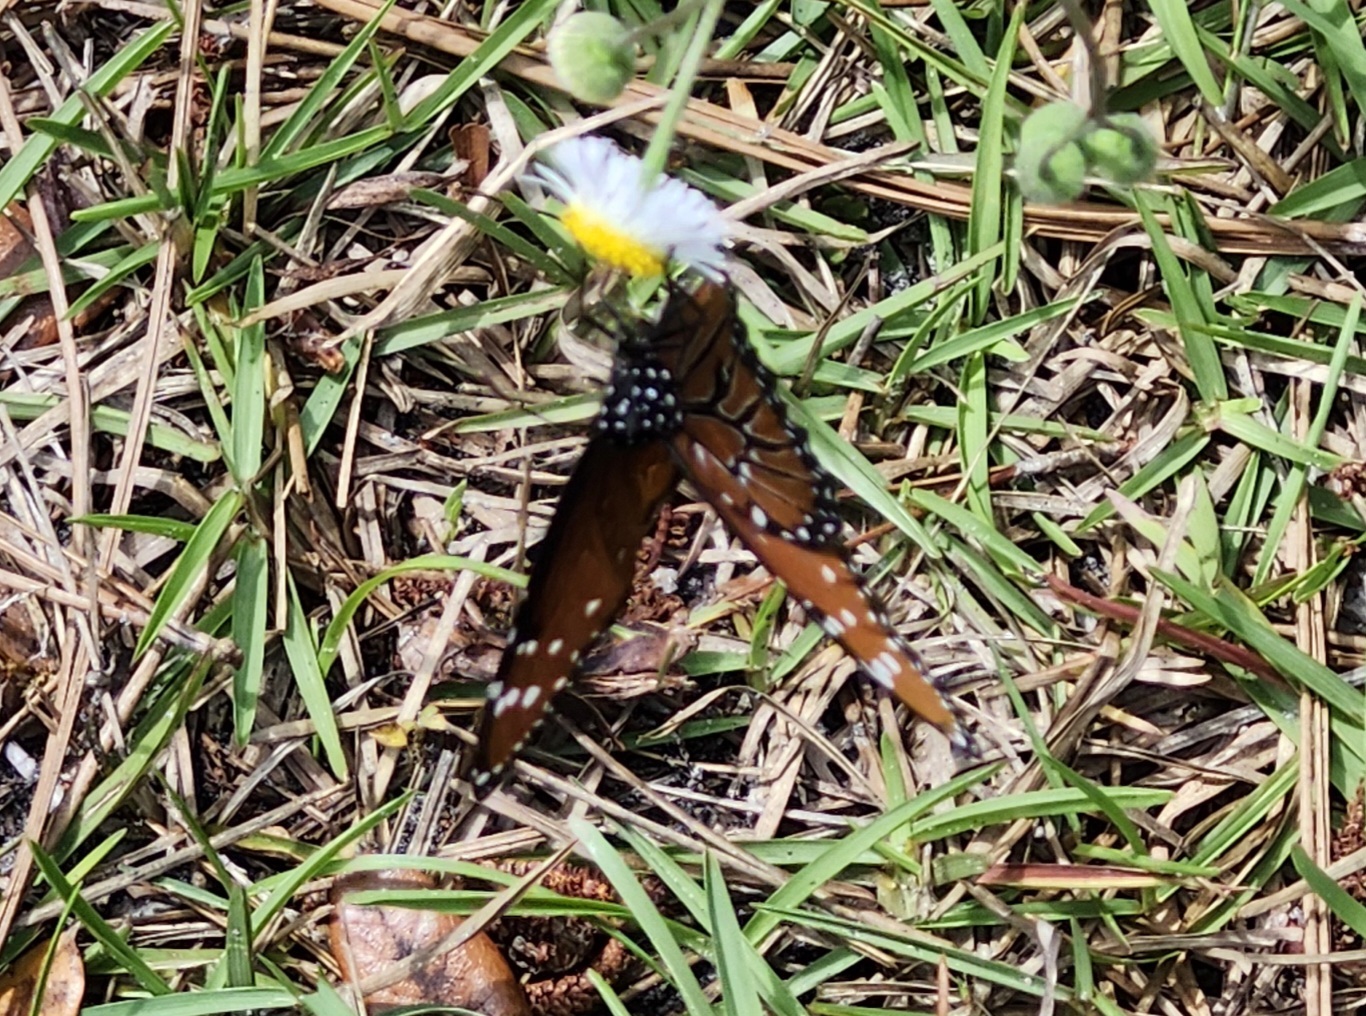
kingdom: Animalia
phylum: Arthropoda
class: Insecta
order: Lepidoptera
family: Nymphalidae
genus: Danaus
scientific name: Danaus gilippus
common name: Queen
